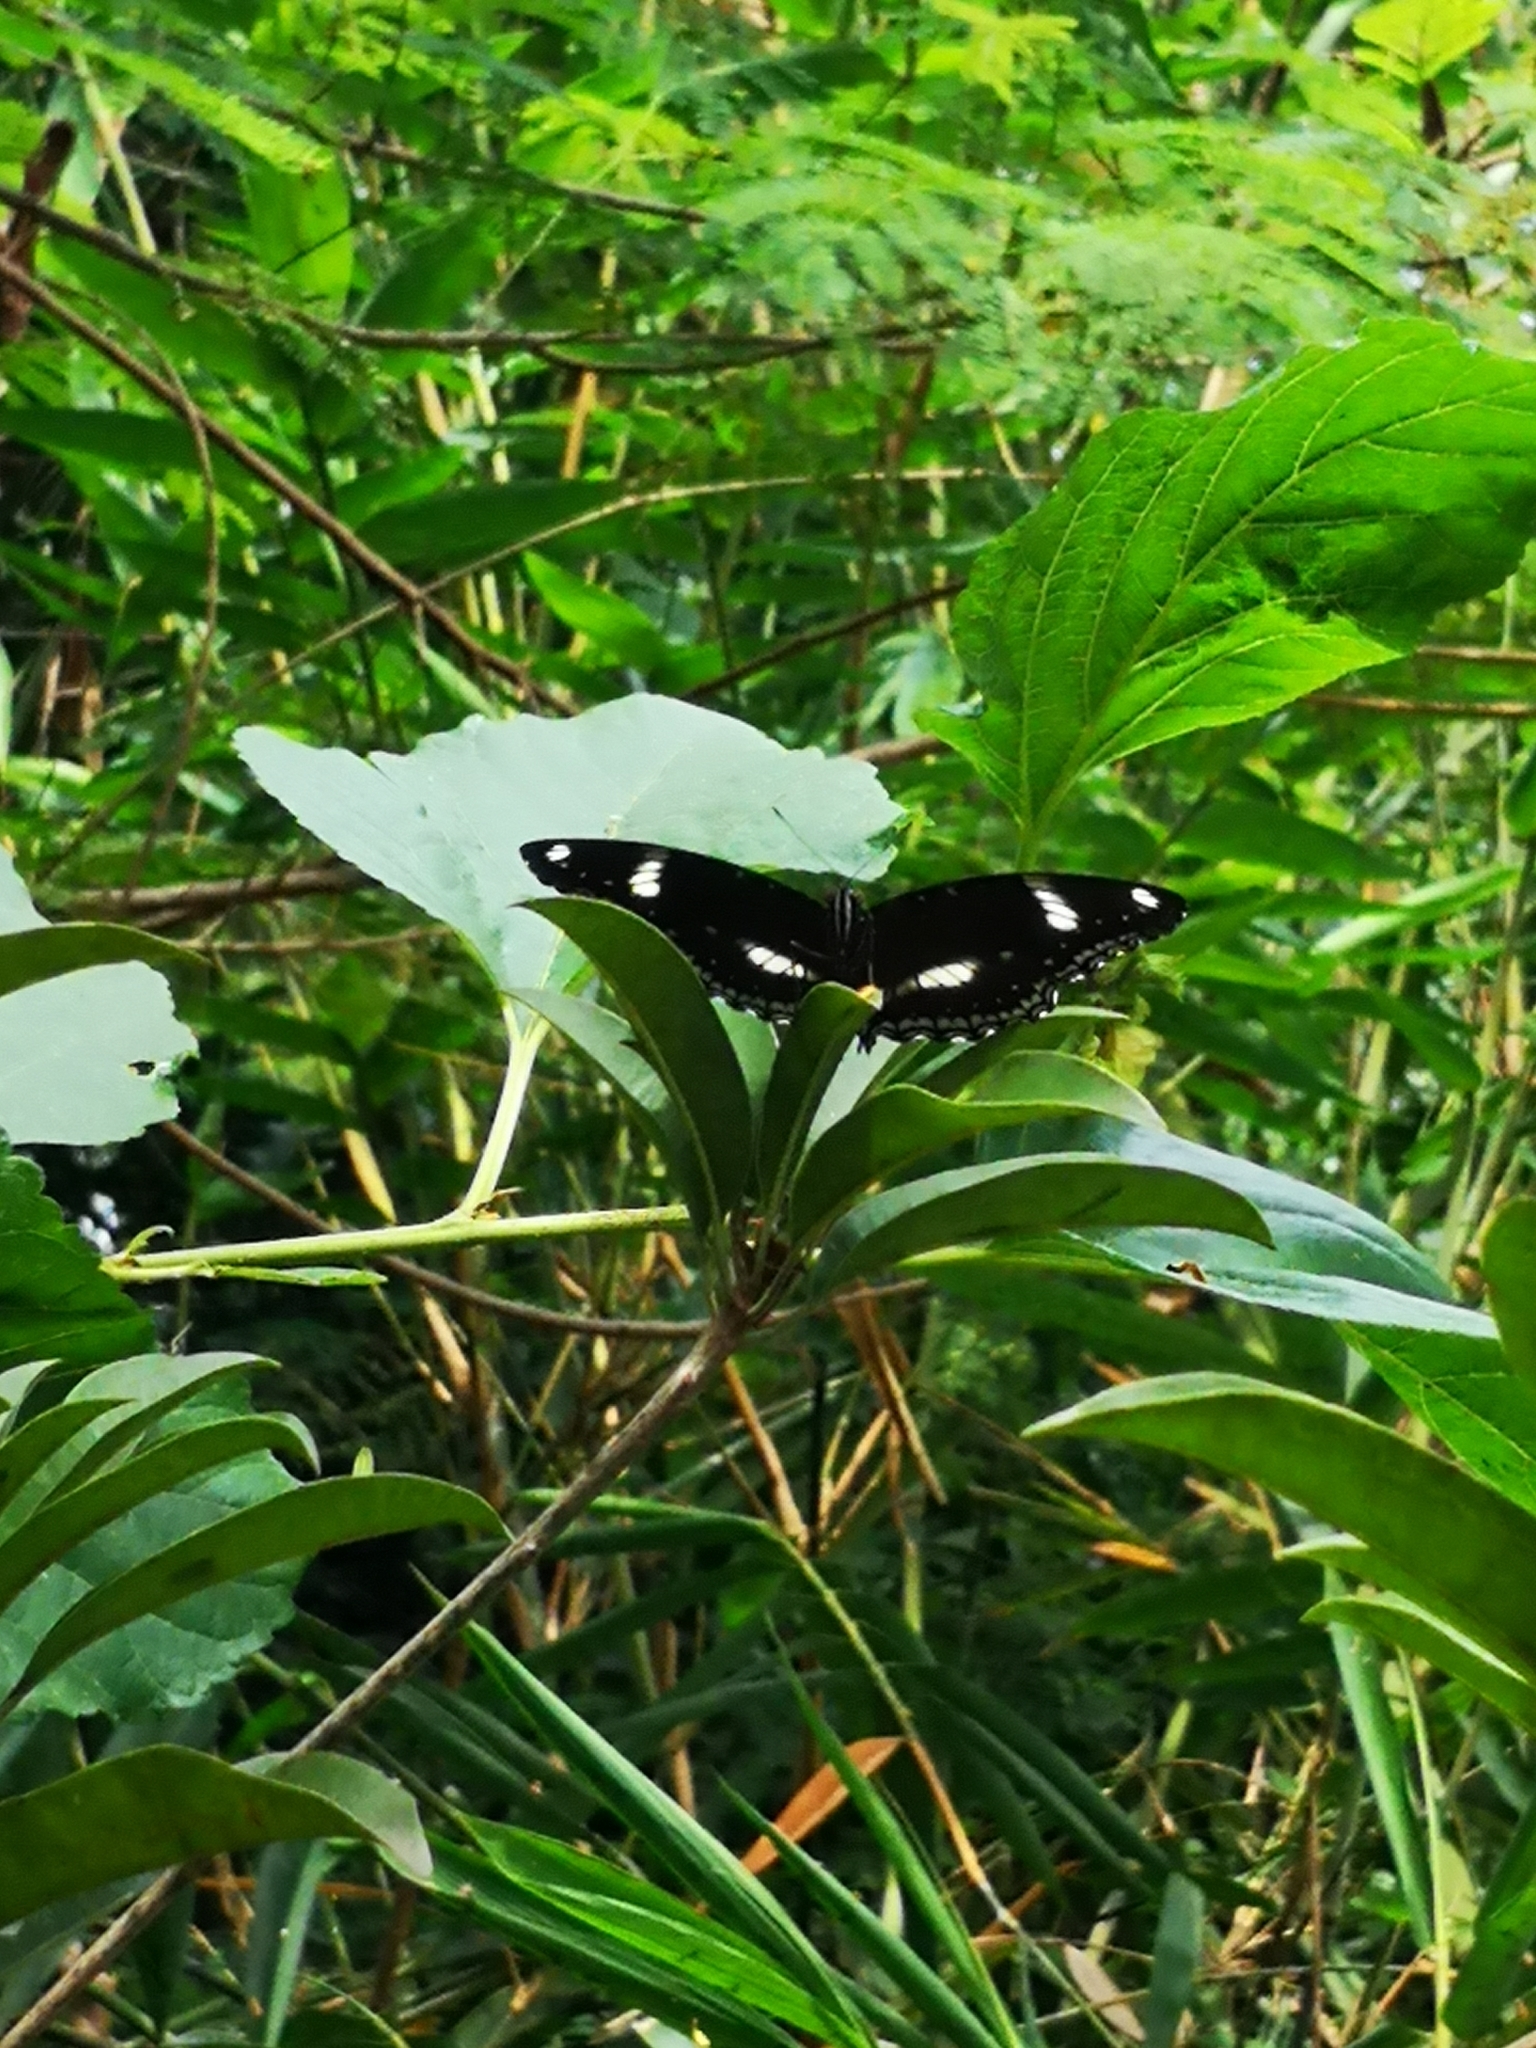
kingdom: Animalia
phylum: Arthropoda
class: Insecta
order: Lepidoptera
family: Nymphalidae
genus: Hypolimnas
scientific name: Hypolimnas bolina
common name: Great eggfly
